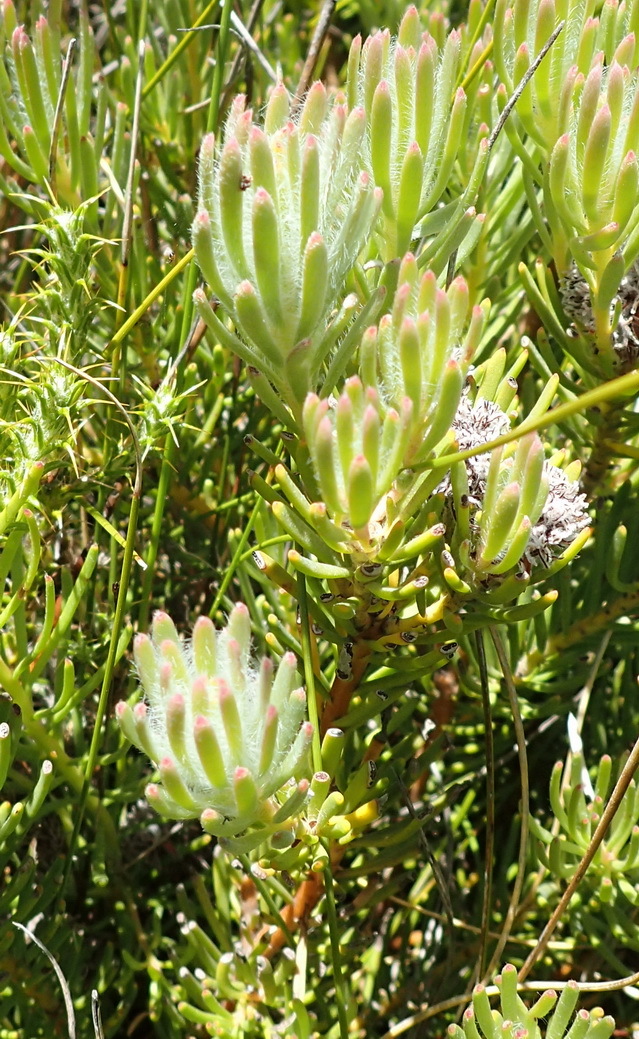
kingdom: Plantae
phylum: Tracheophyta
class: Magnoliopsida
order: Proteales
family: Proteaceae
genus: Leucadendron
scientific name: Leucadendron dregei
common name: Summit conebush
